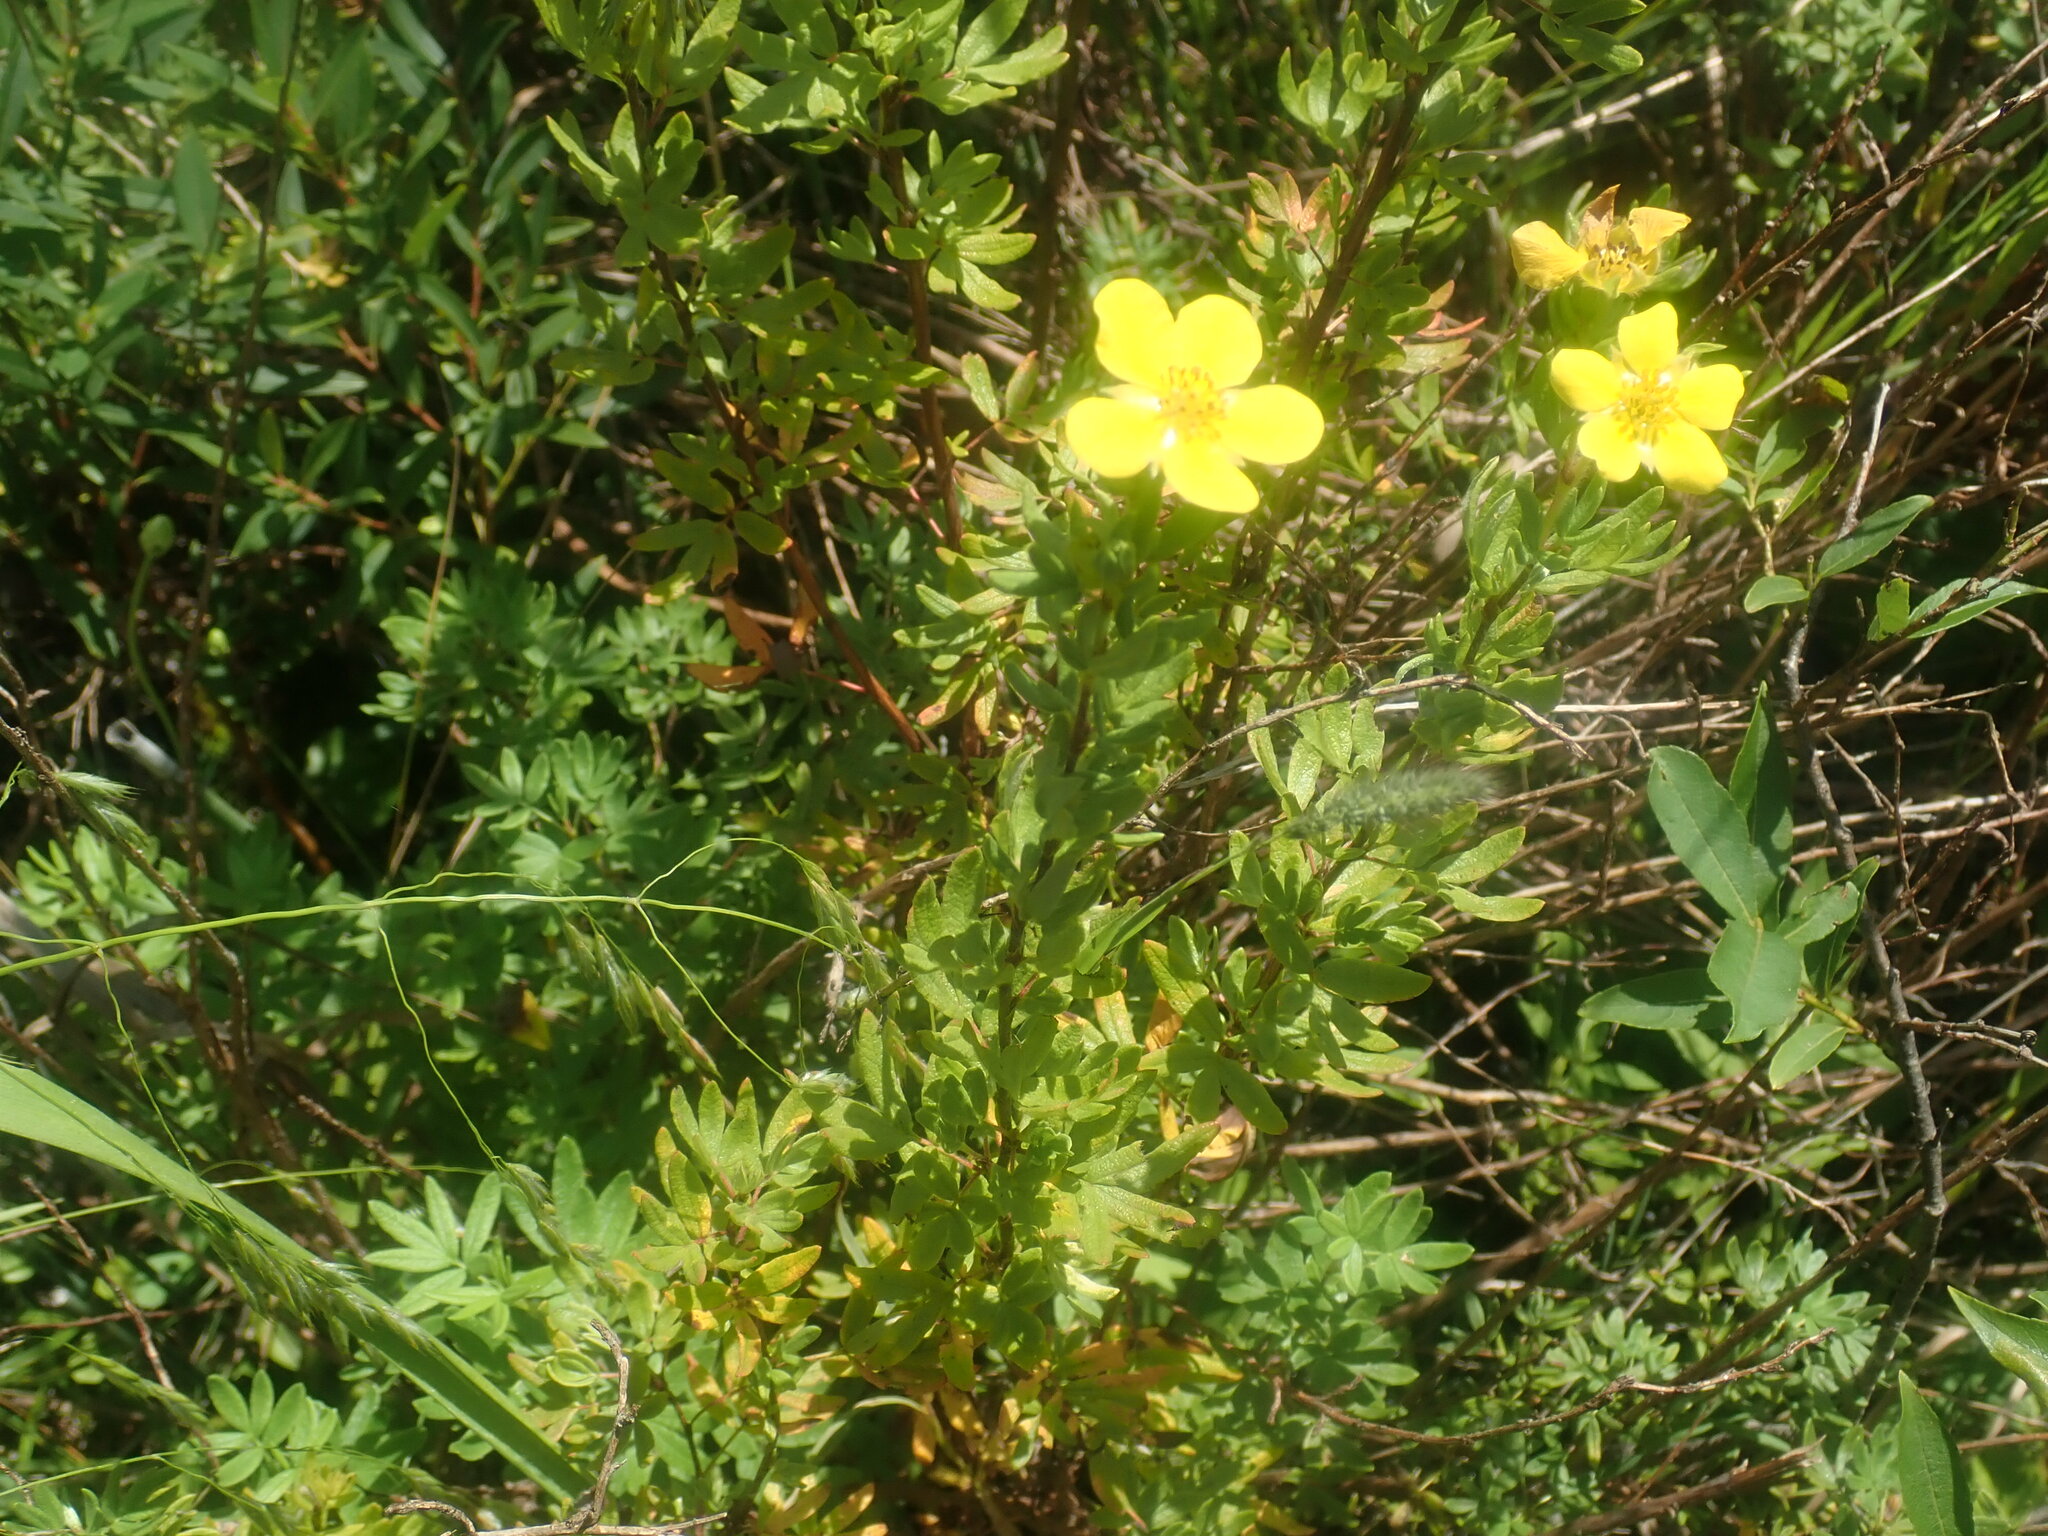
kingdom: Plantae
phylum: Tracheophyta
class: Magnoliopsida
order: Rosales
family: Rosaceae
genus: Dasiphora
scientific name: Dasiphora fruticosa
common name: Shrubby cinquefoil
